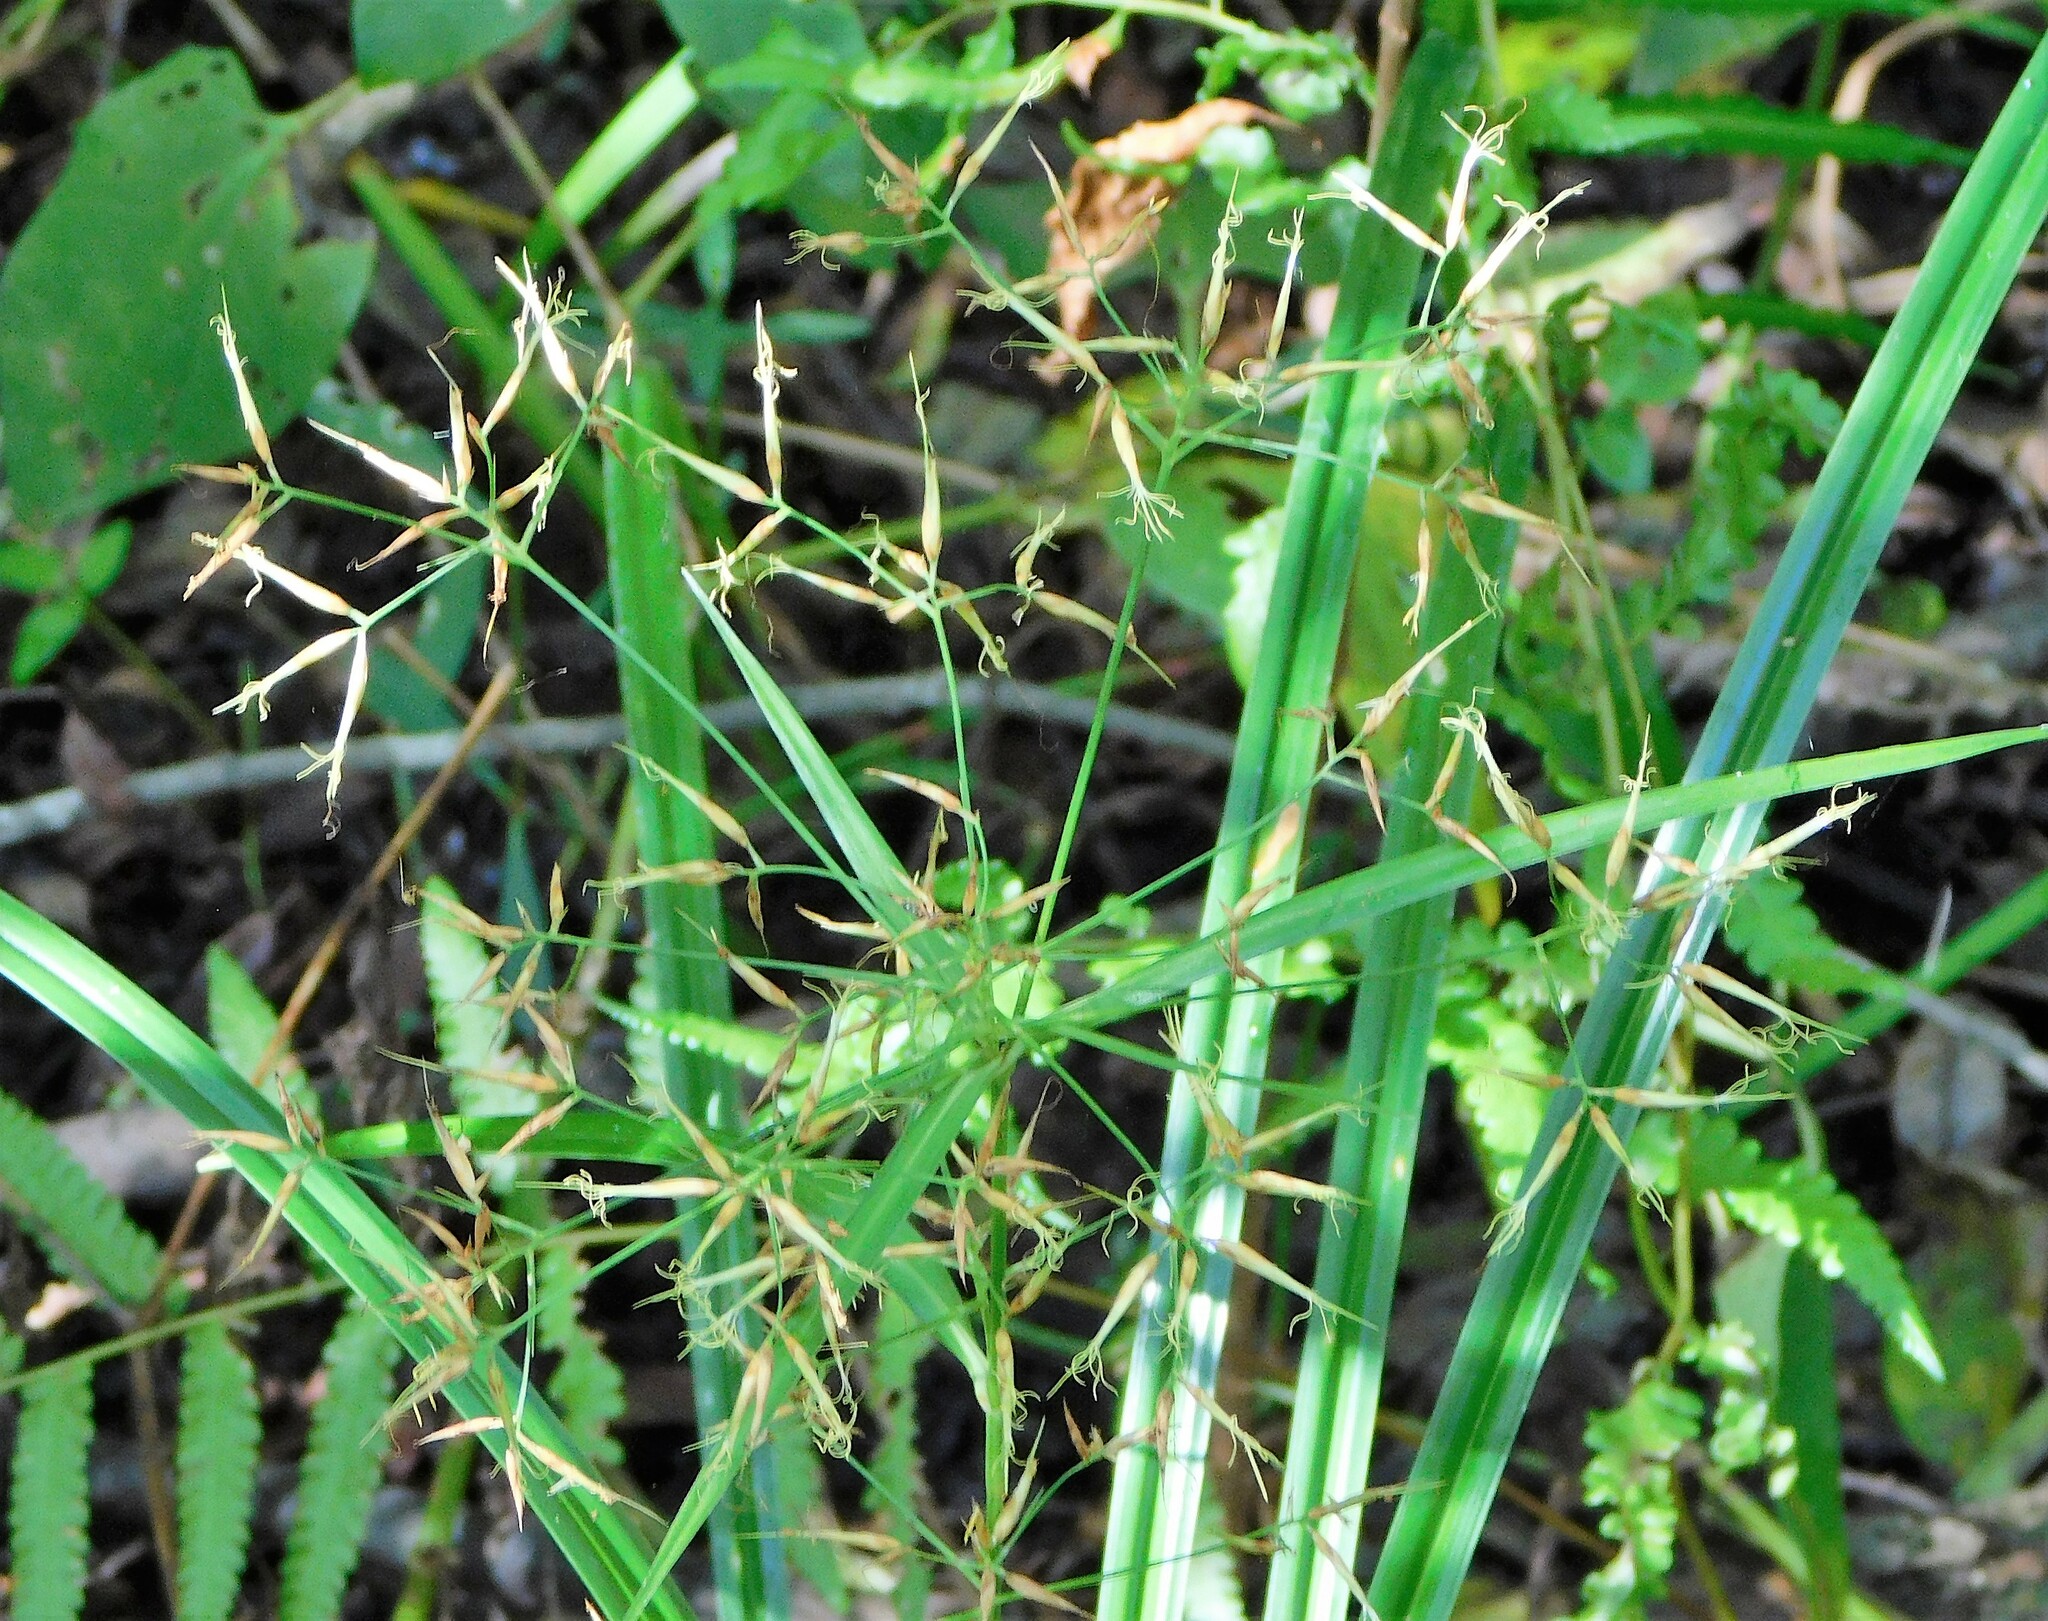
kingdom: Plantae
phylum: Tracheophyta
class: Liliopsida
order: Poales
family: Cyperaceae
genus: Rhynchospora
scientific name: Rhynchospora inundata
